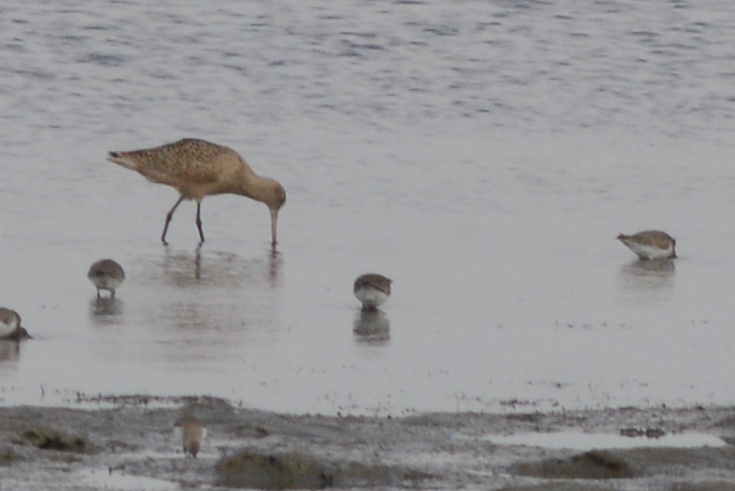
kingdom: Animalia
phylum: Chordata
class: Aves
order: Charadriiformes
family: Scolopacidae
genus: Limosa
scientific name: Limosa fedoa
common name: Marbled godwit
